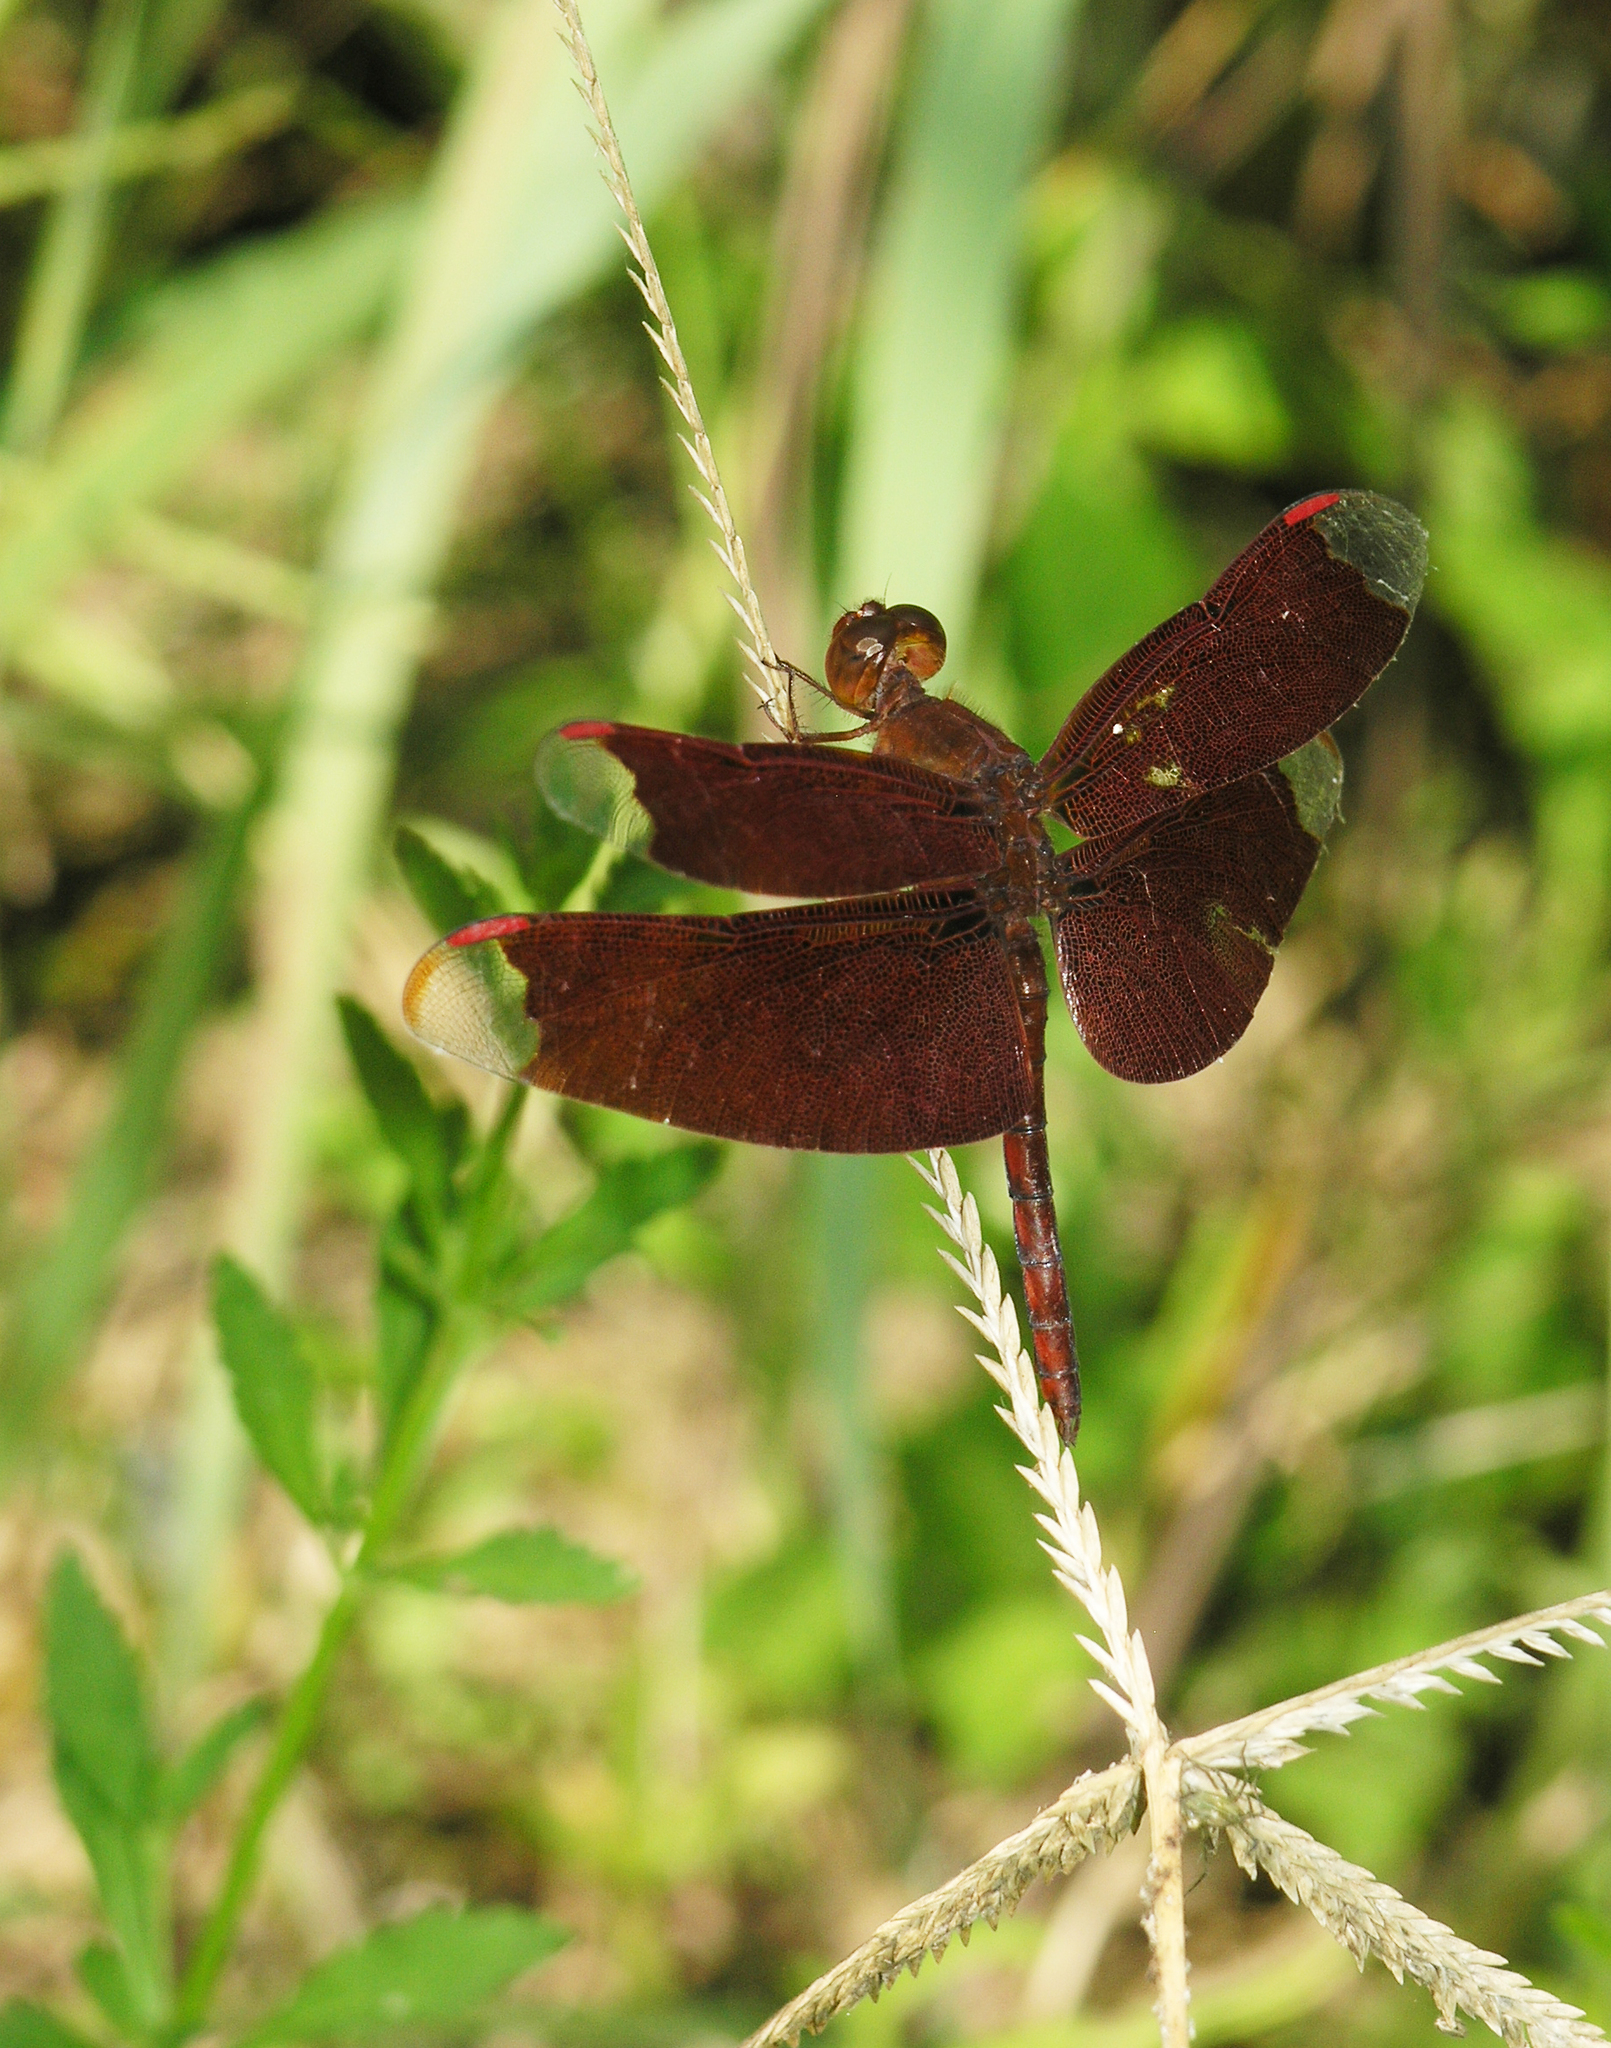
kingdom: Animalia
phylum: Arthropoda
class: Insecta
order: Odonata
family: Libellulidae
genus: Neurothemis
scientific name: Neurothemis fulvia
